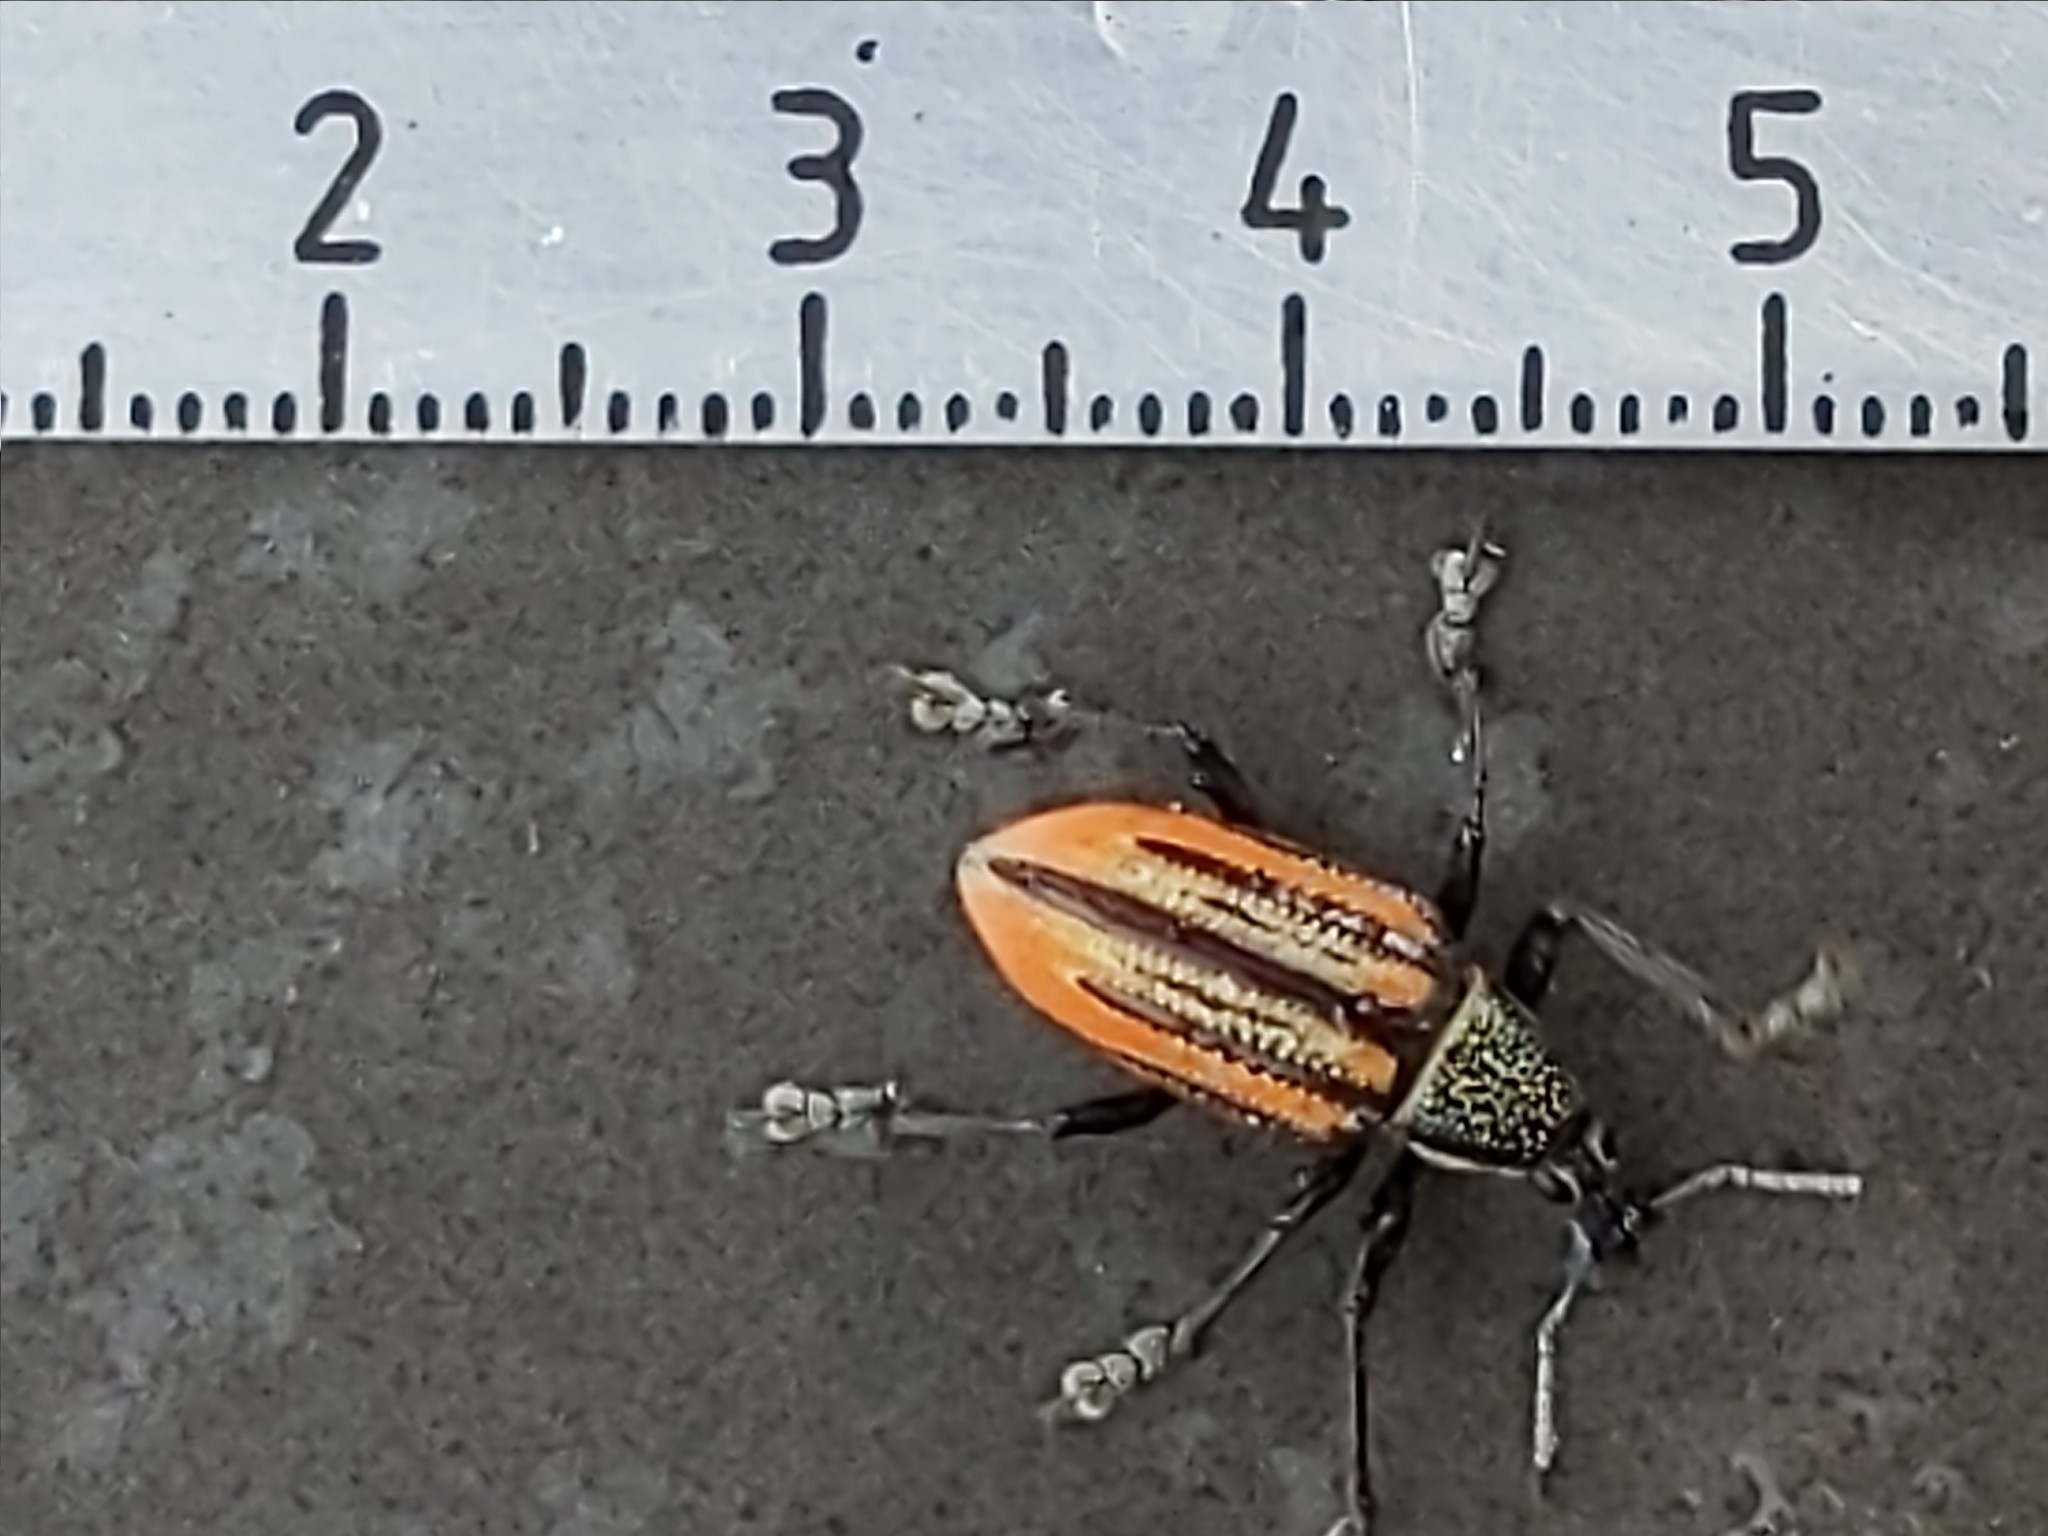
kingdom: Animalia
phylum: Arthropoda
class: Insecta
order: Coleoptera
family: Curculionidae
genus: Diaprepes
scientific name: Diaprepes abbreviatus
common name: Root weevil
